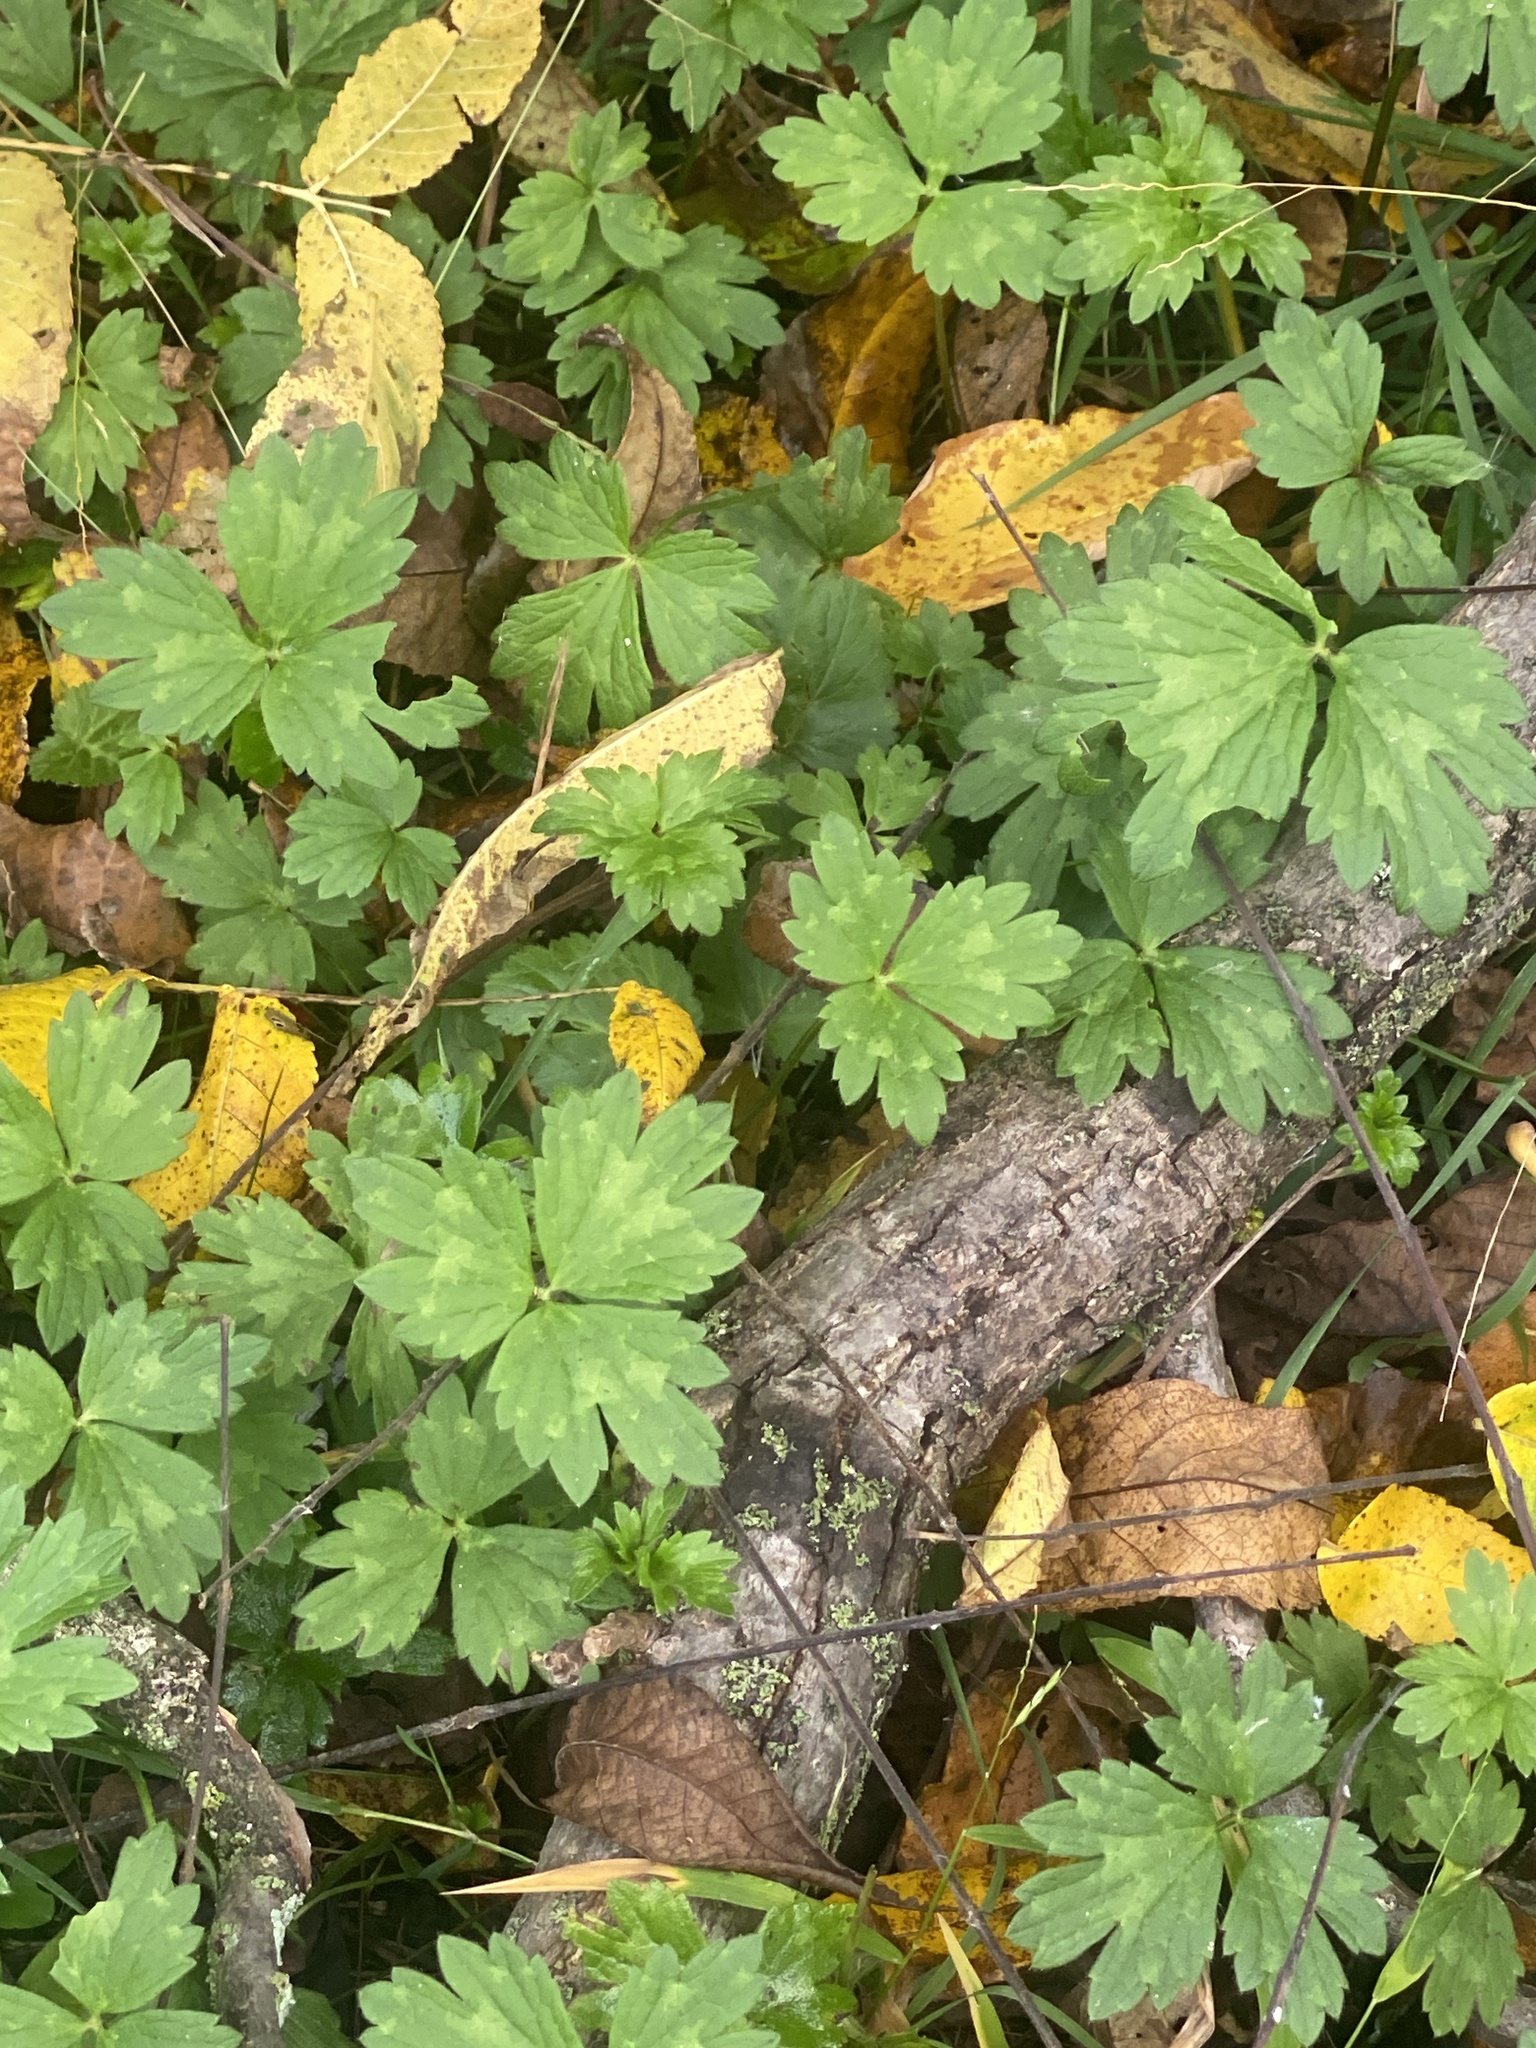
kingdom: Plantae
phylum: Tracheophyta
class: Magnoliopsida
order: Ranunculales
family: Ranunculaceae
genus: Ranunculus
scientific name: Ranunculus repens
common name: Creeping buttercup
